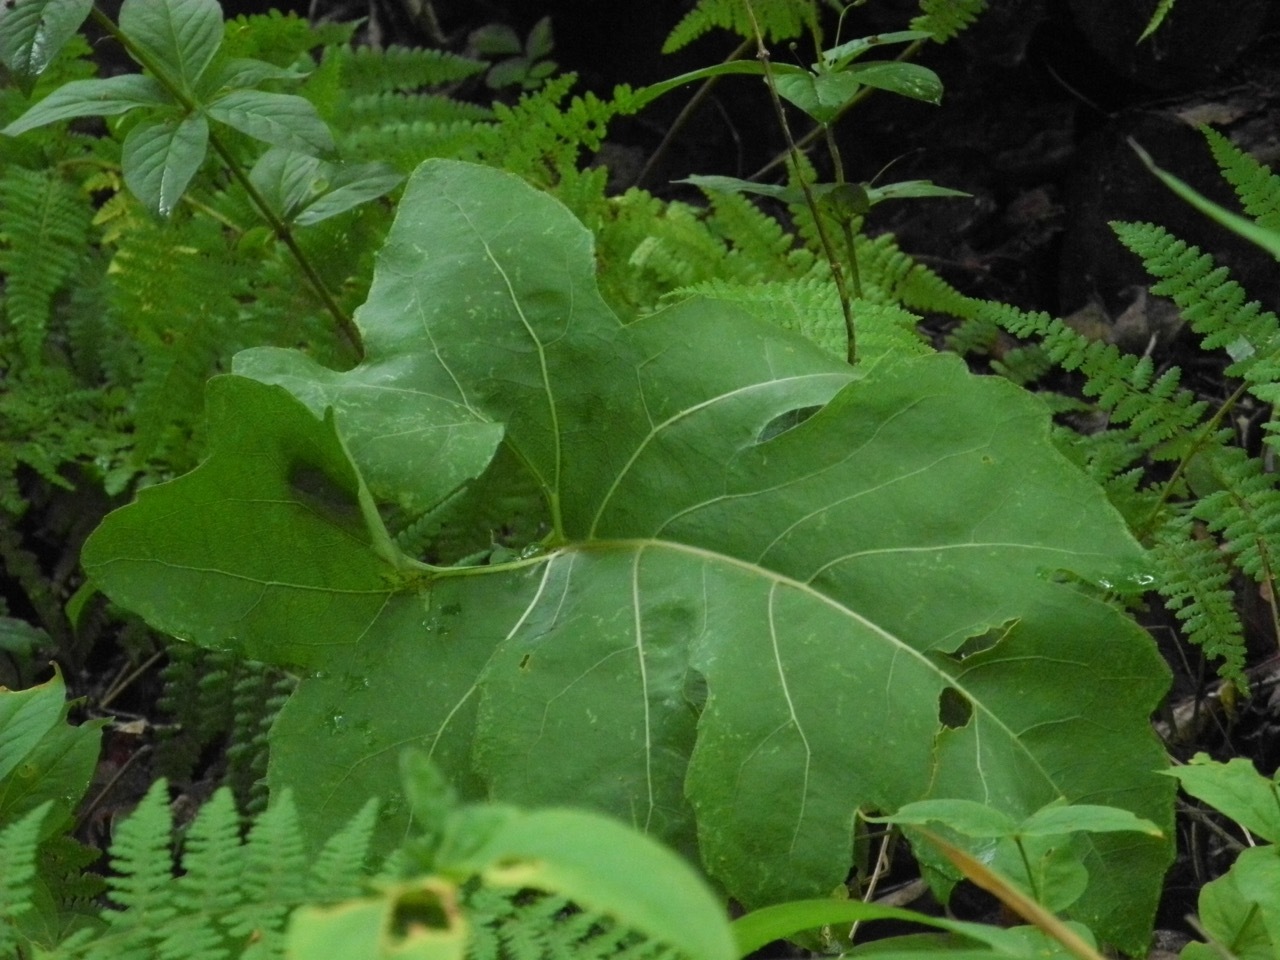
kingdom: Plantae
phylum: Tracheophyta
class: Magnoliopsida
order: Asterales
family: Asteraceae
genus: Silphium
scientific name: Silphium compositum
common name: Lesser basal-leaf rosinweed
